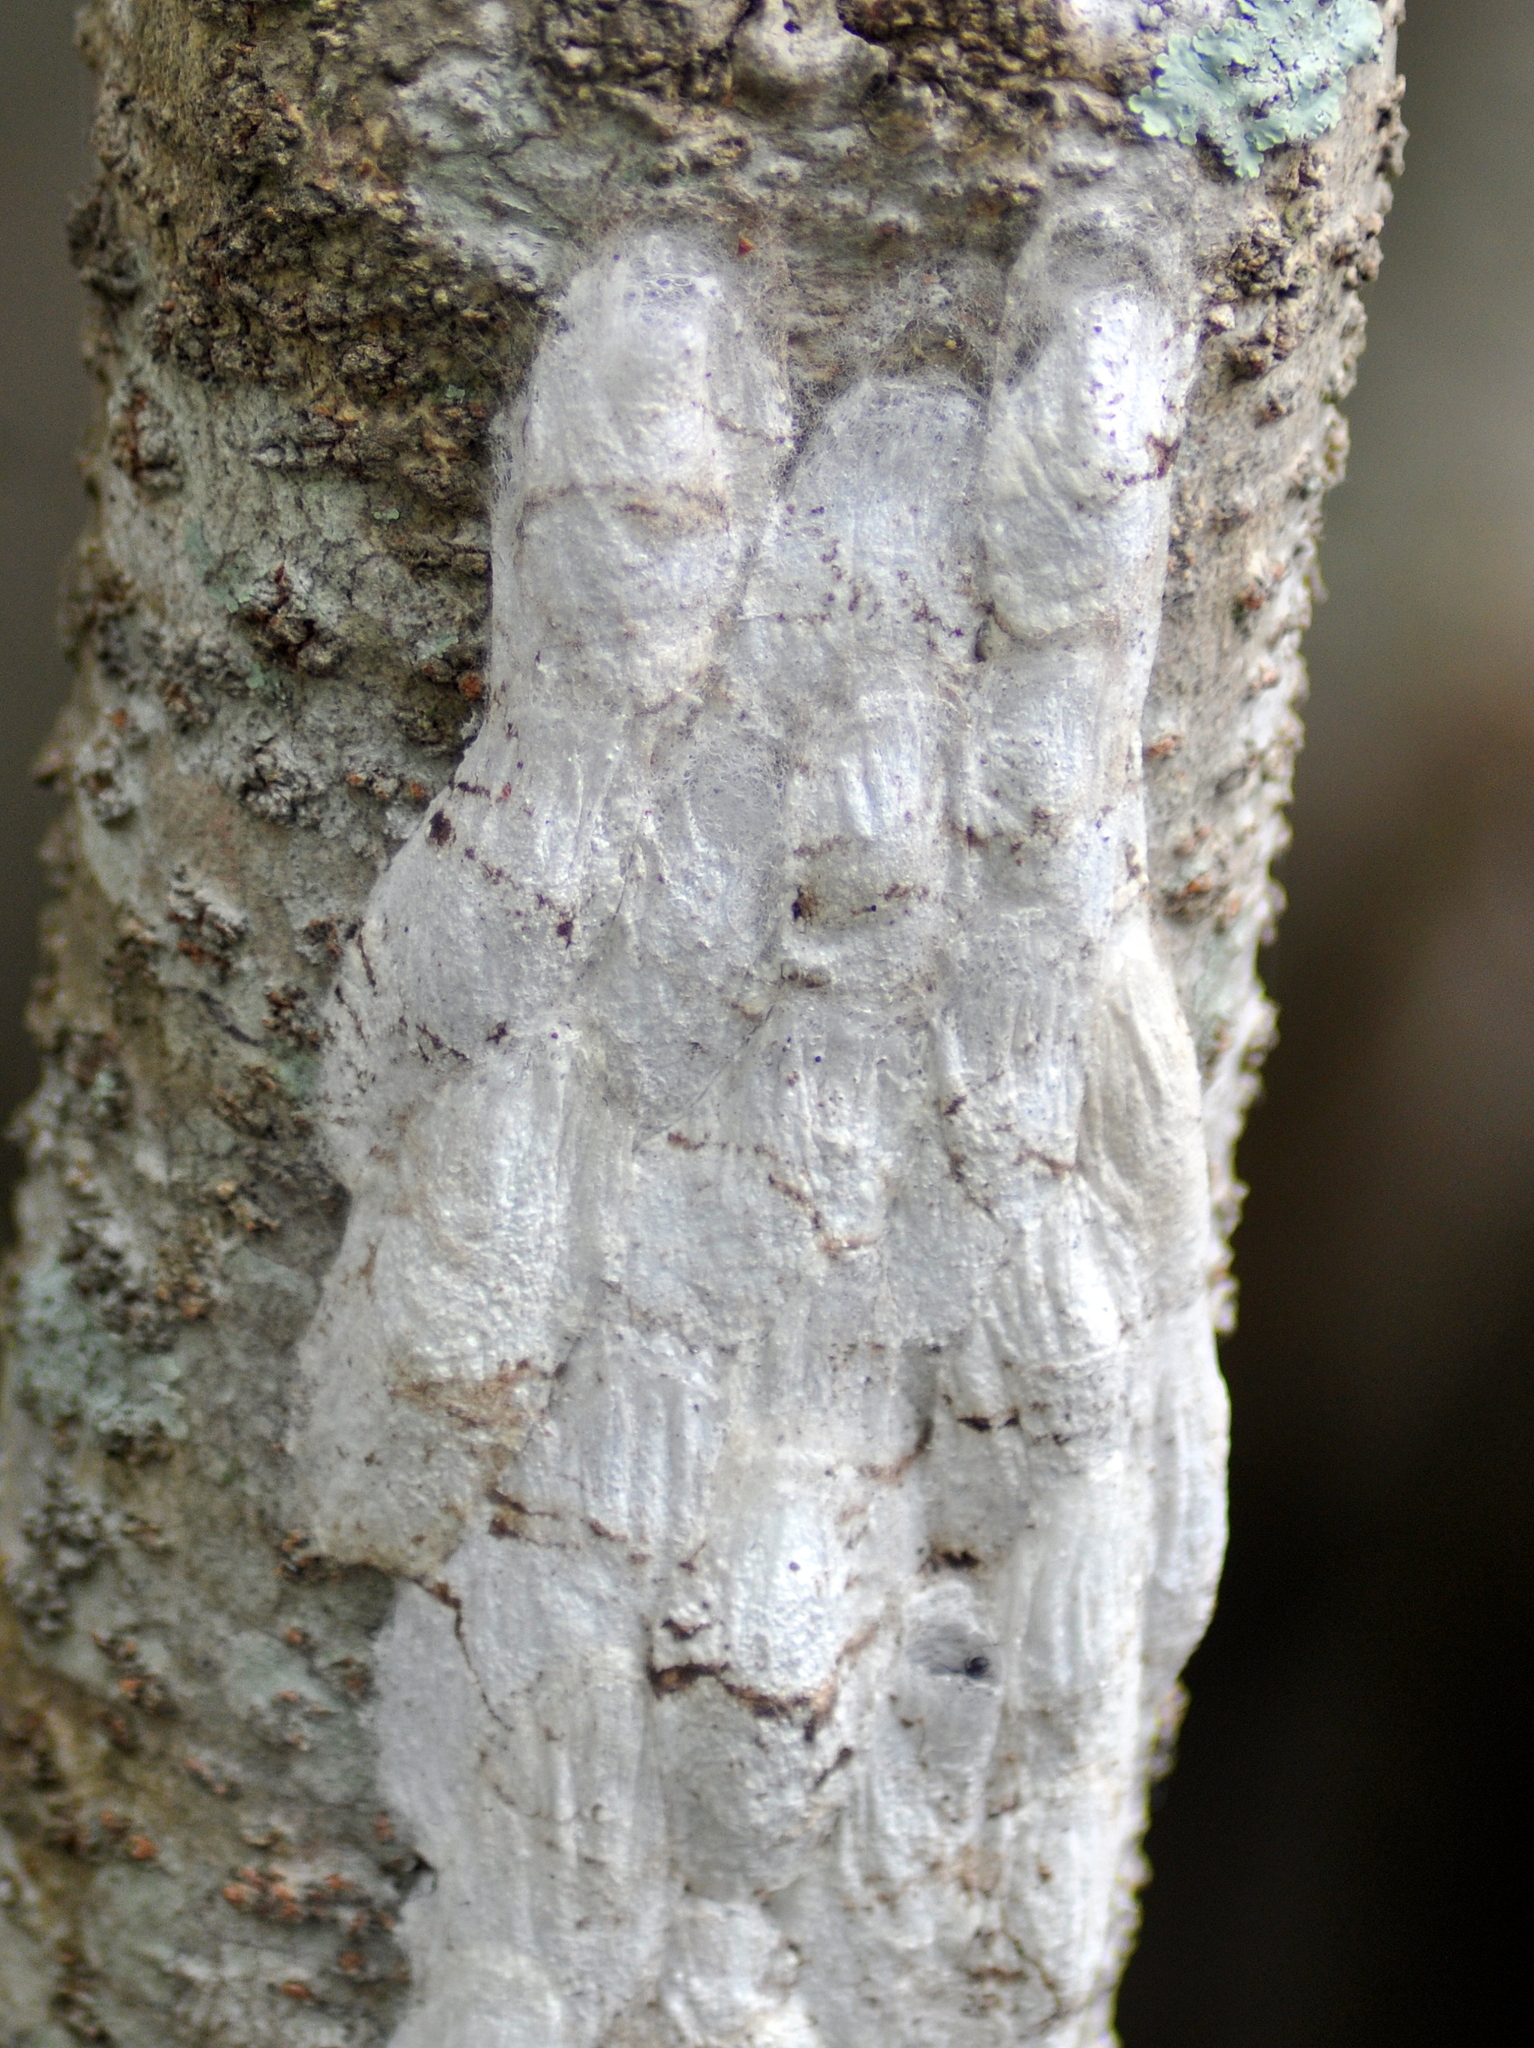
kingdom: Animalia
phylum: Arthropoda
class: Insecta
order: Lepidoptera
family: Lasiocampidae
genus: Artace
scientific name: Artace itatiaya
